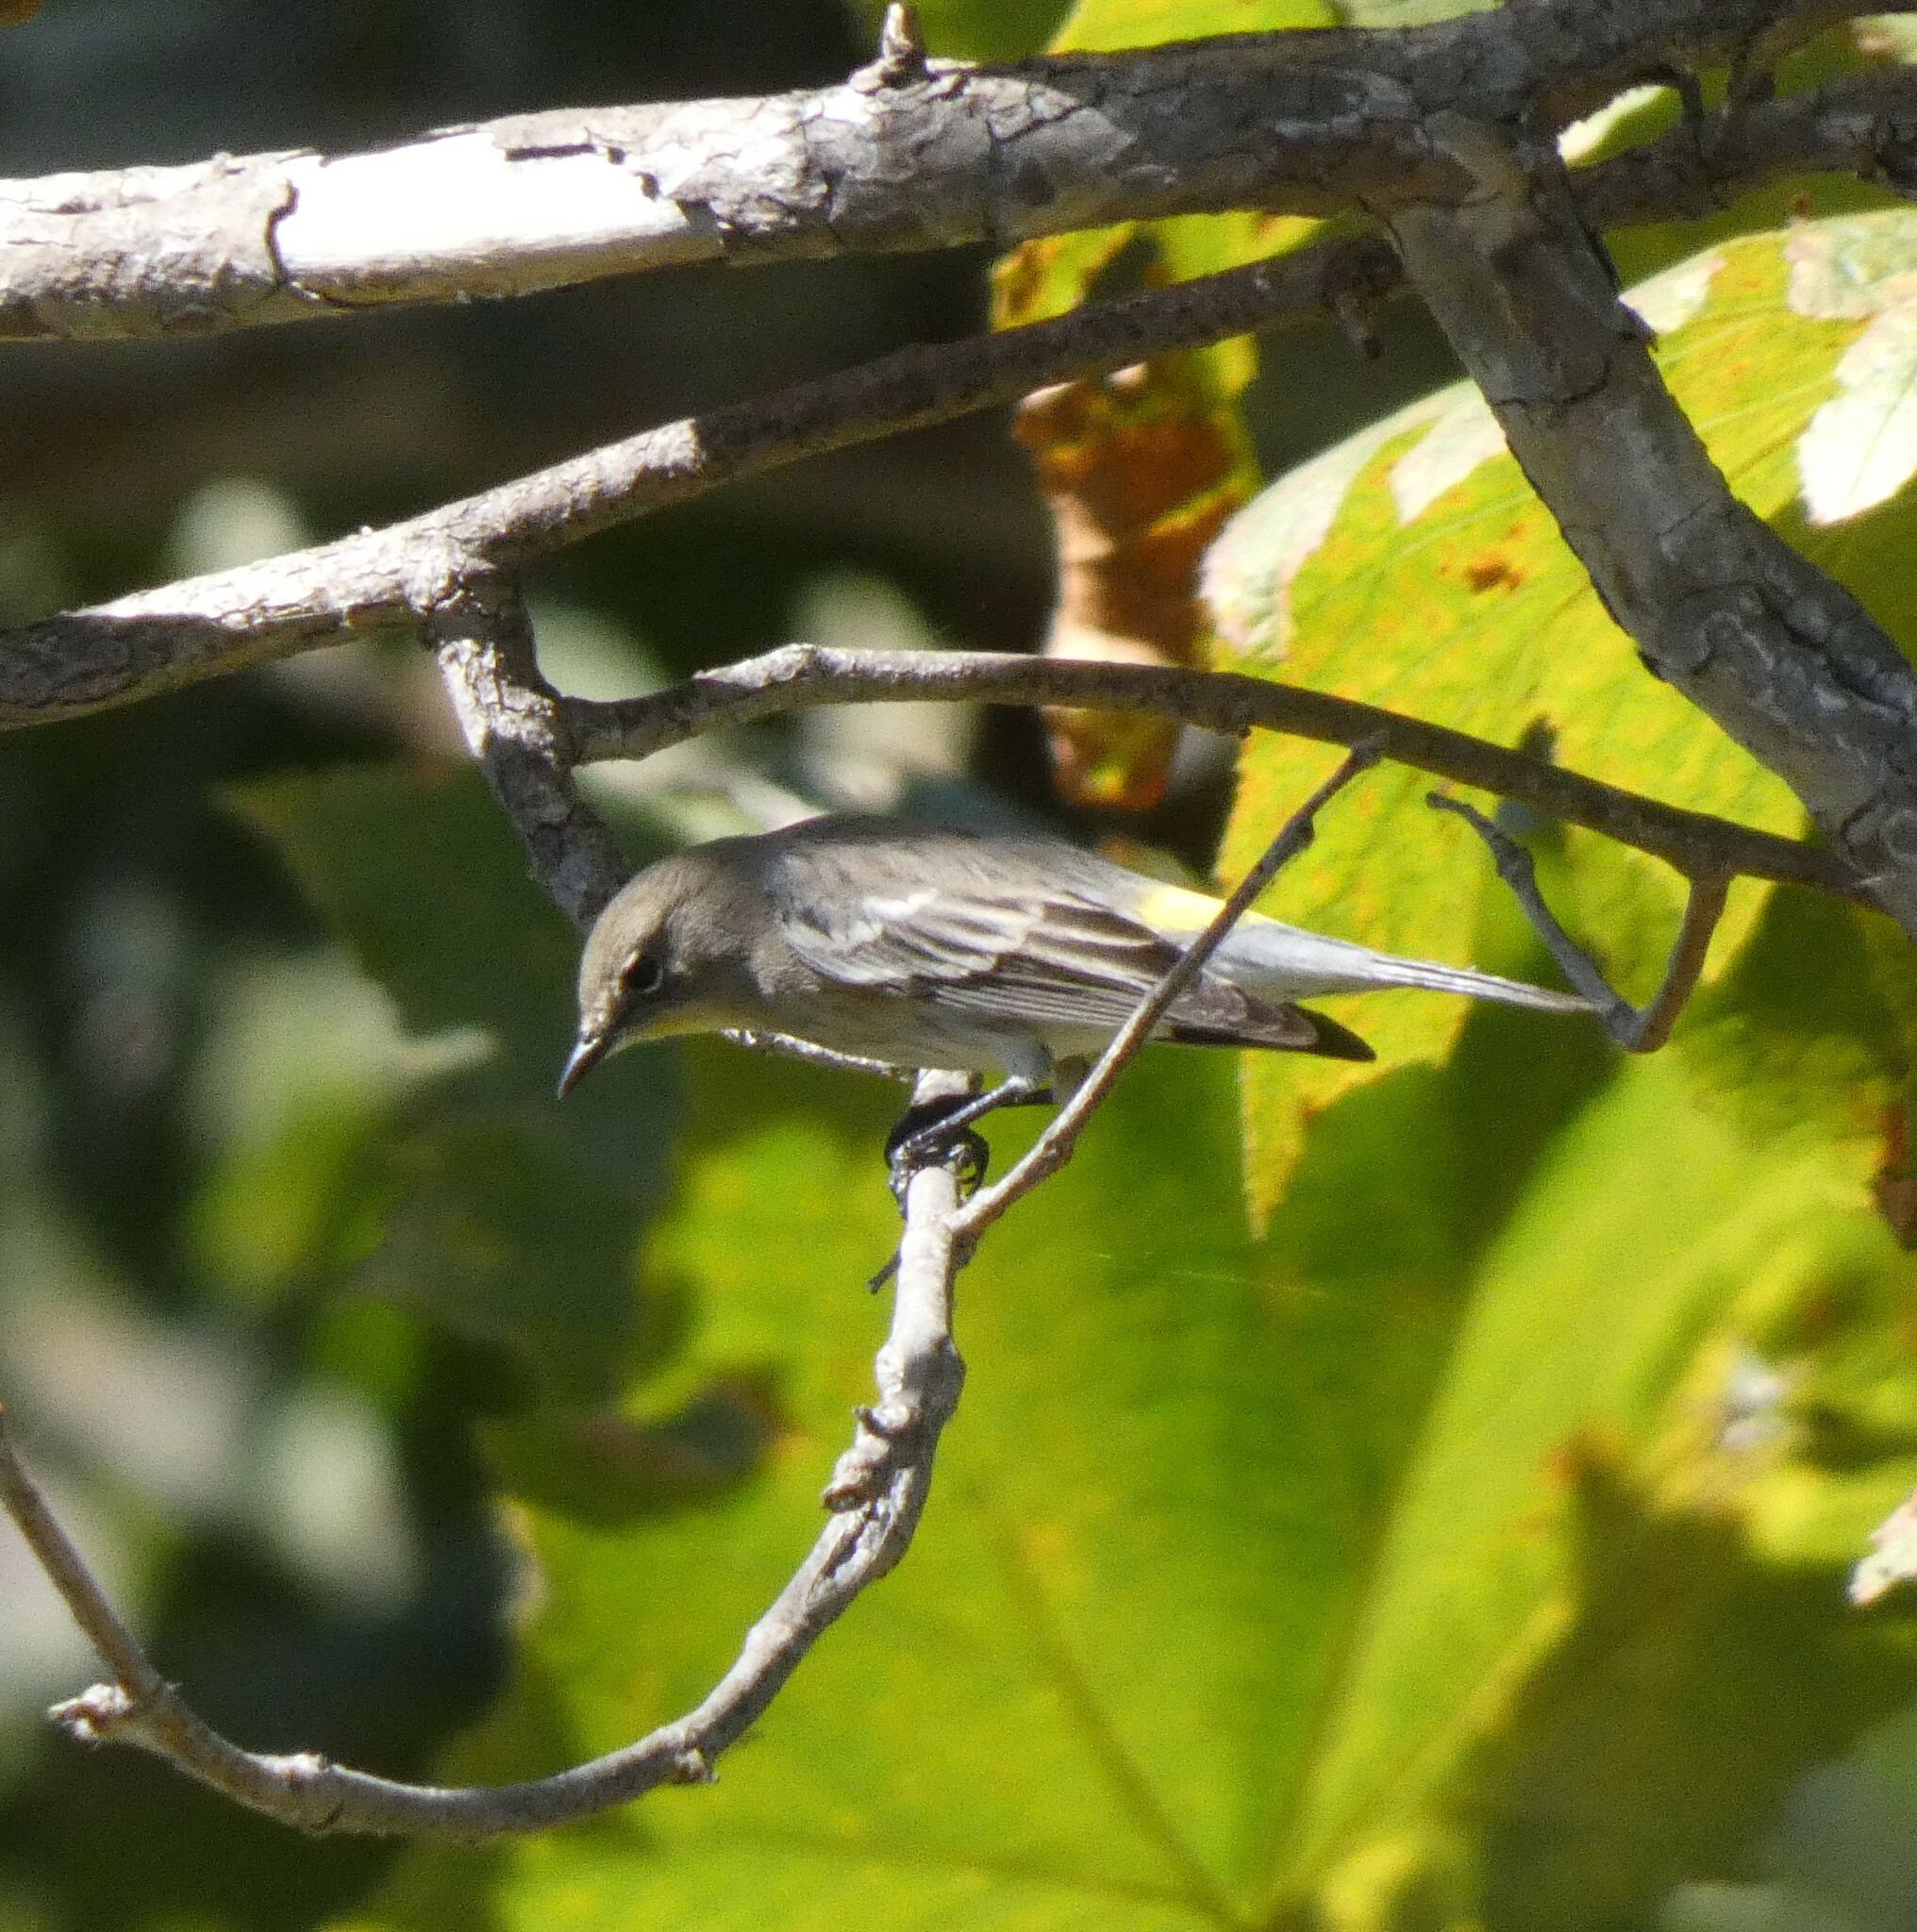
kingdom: Animalia
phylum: Chordata
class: Aves
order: Passeriformes
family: Parulidae
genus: Setophaga
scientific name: Setophaga coronata
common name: Myrtle warbler
